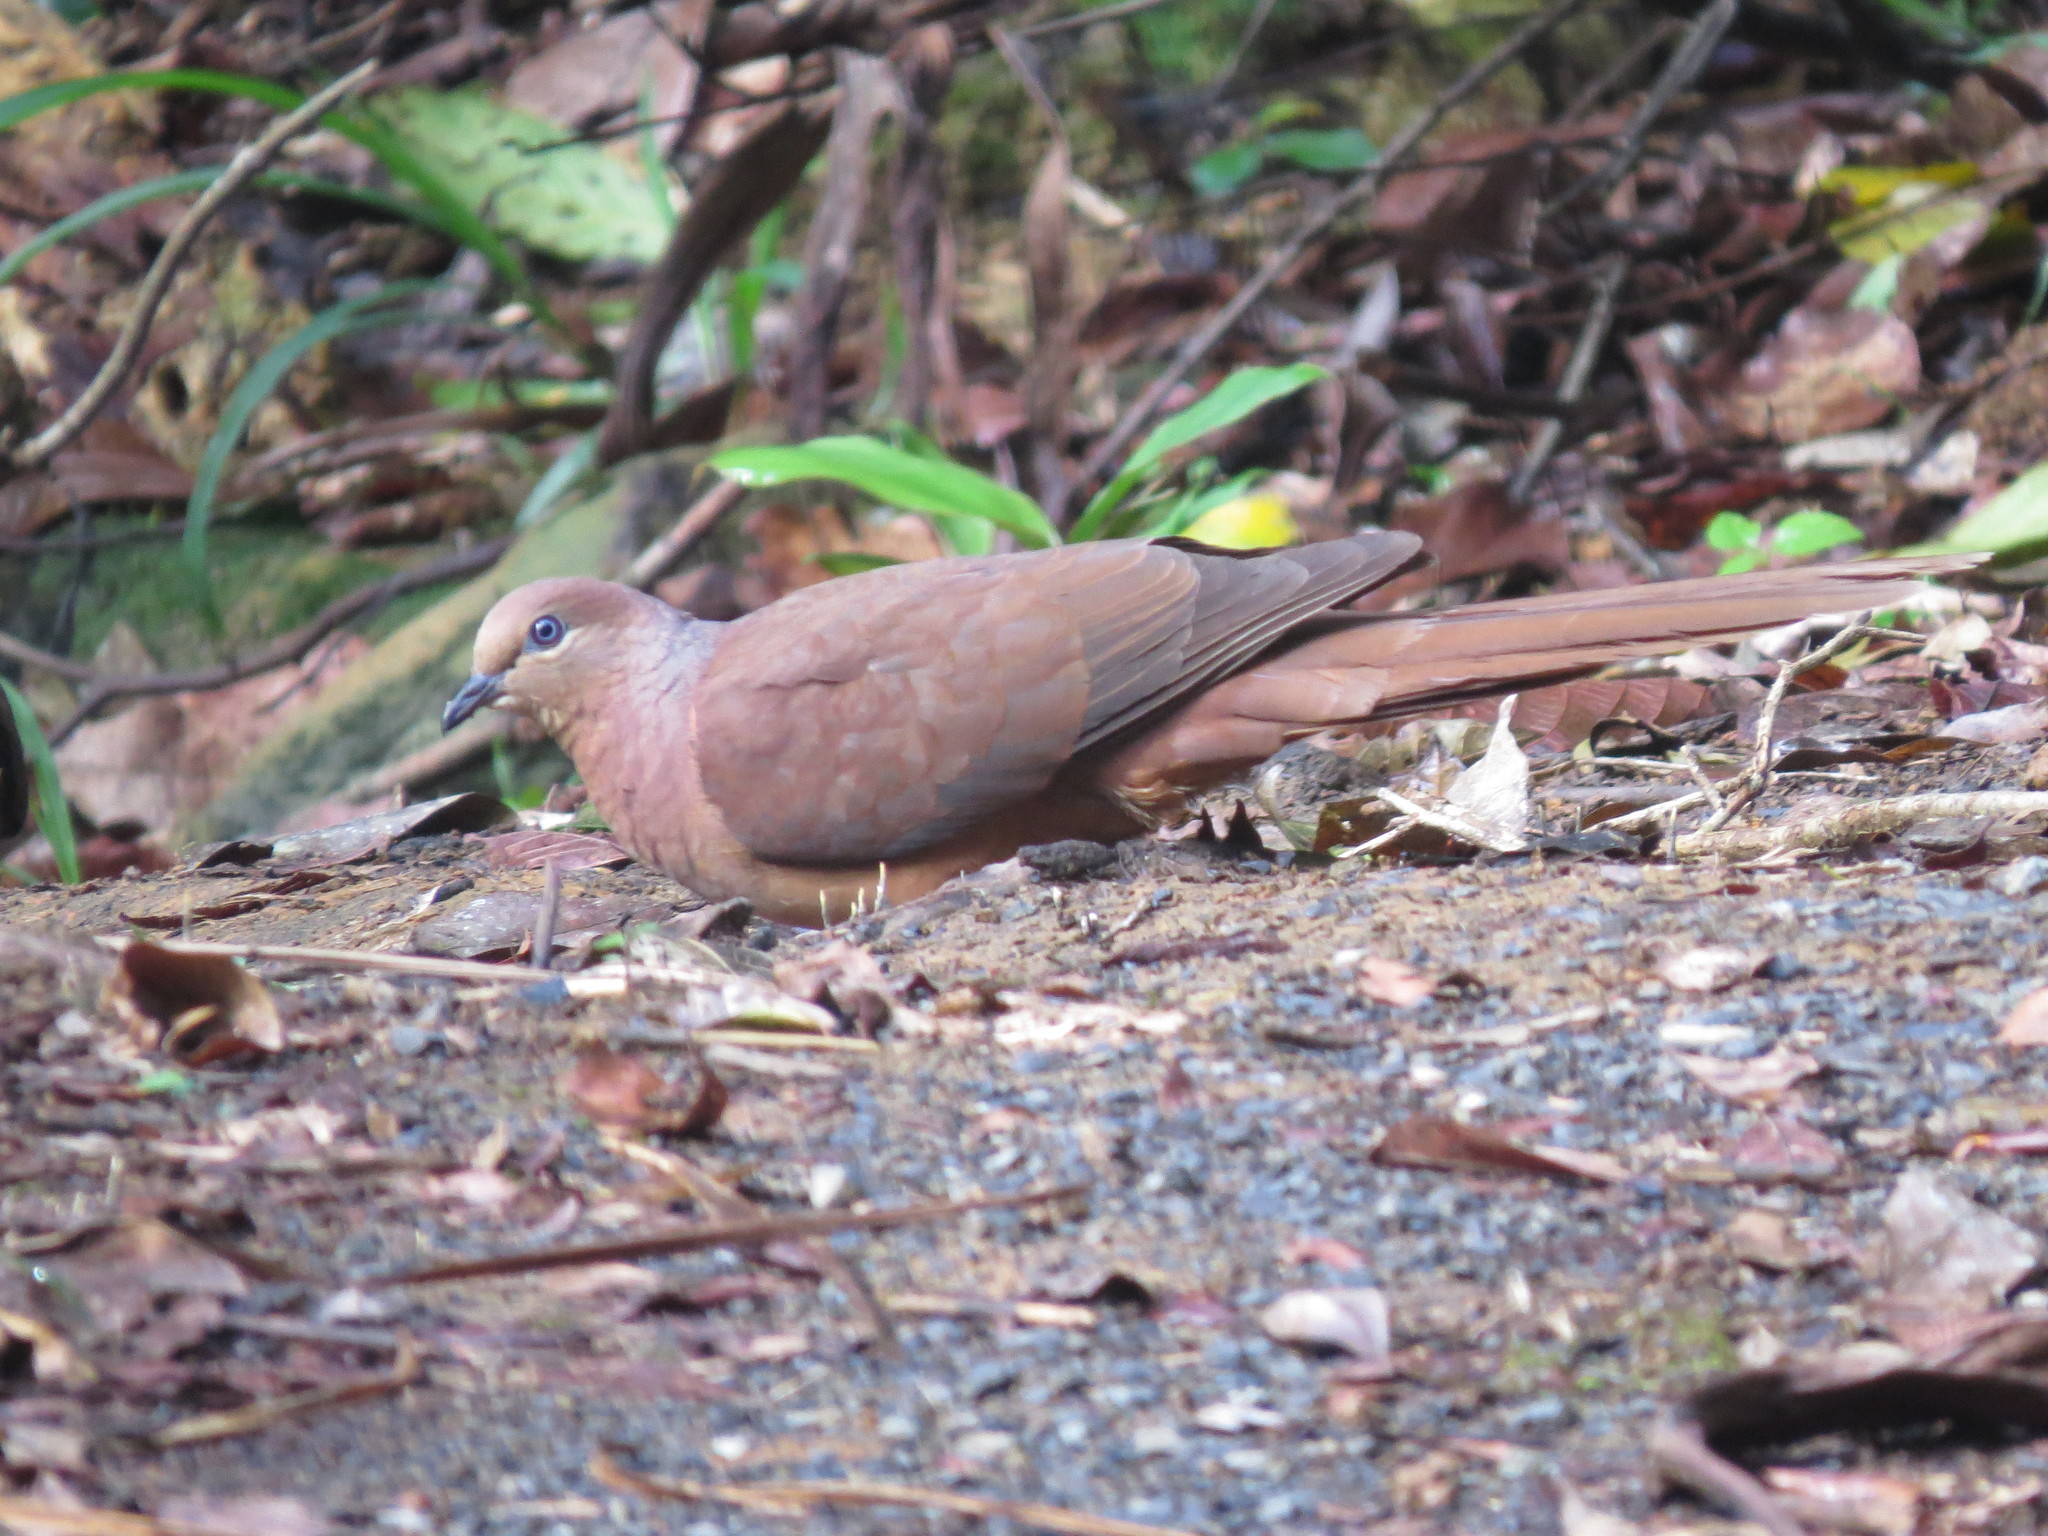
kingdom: Animalia
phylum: Chordata
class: Aves
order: Columbiformes
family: Columbidae
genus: Macropygia
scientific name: Macropygia phasianella
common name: Brown cuckoo-dove
